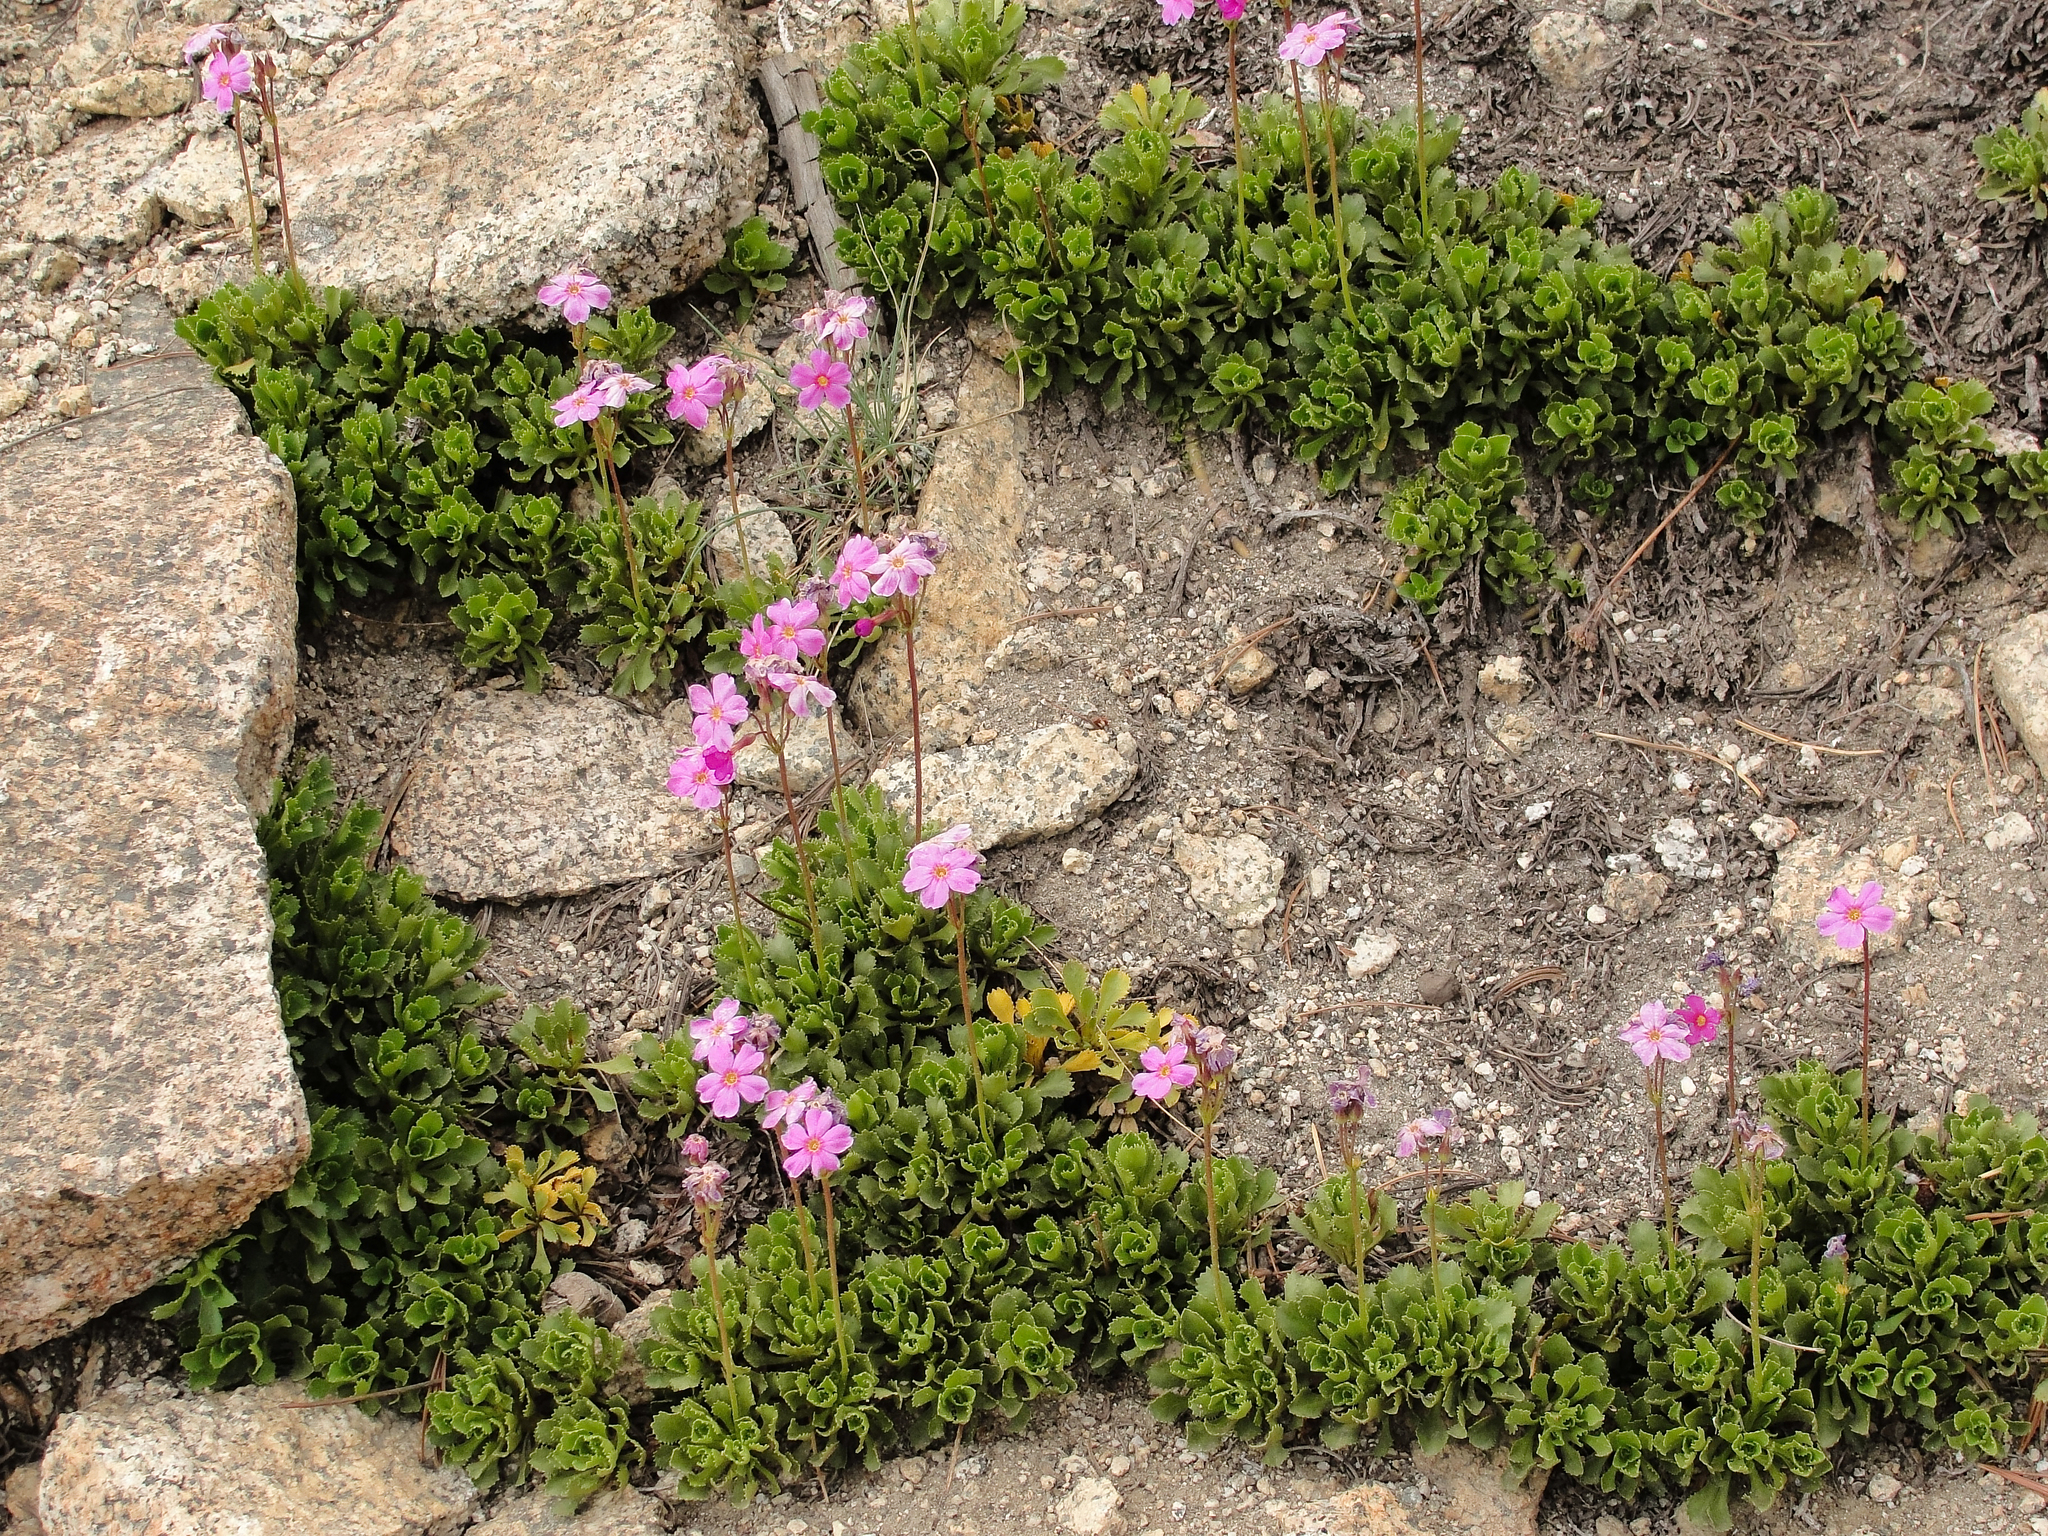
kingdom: Plantae
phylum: Tracheophyta
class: Magnoliopsida
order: Ericales
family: Primulaceae
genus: Primula
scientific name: Primula suffrutescens
